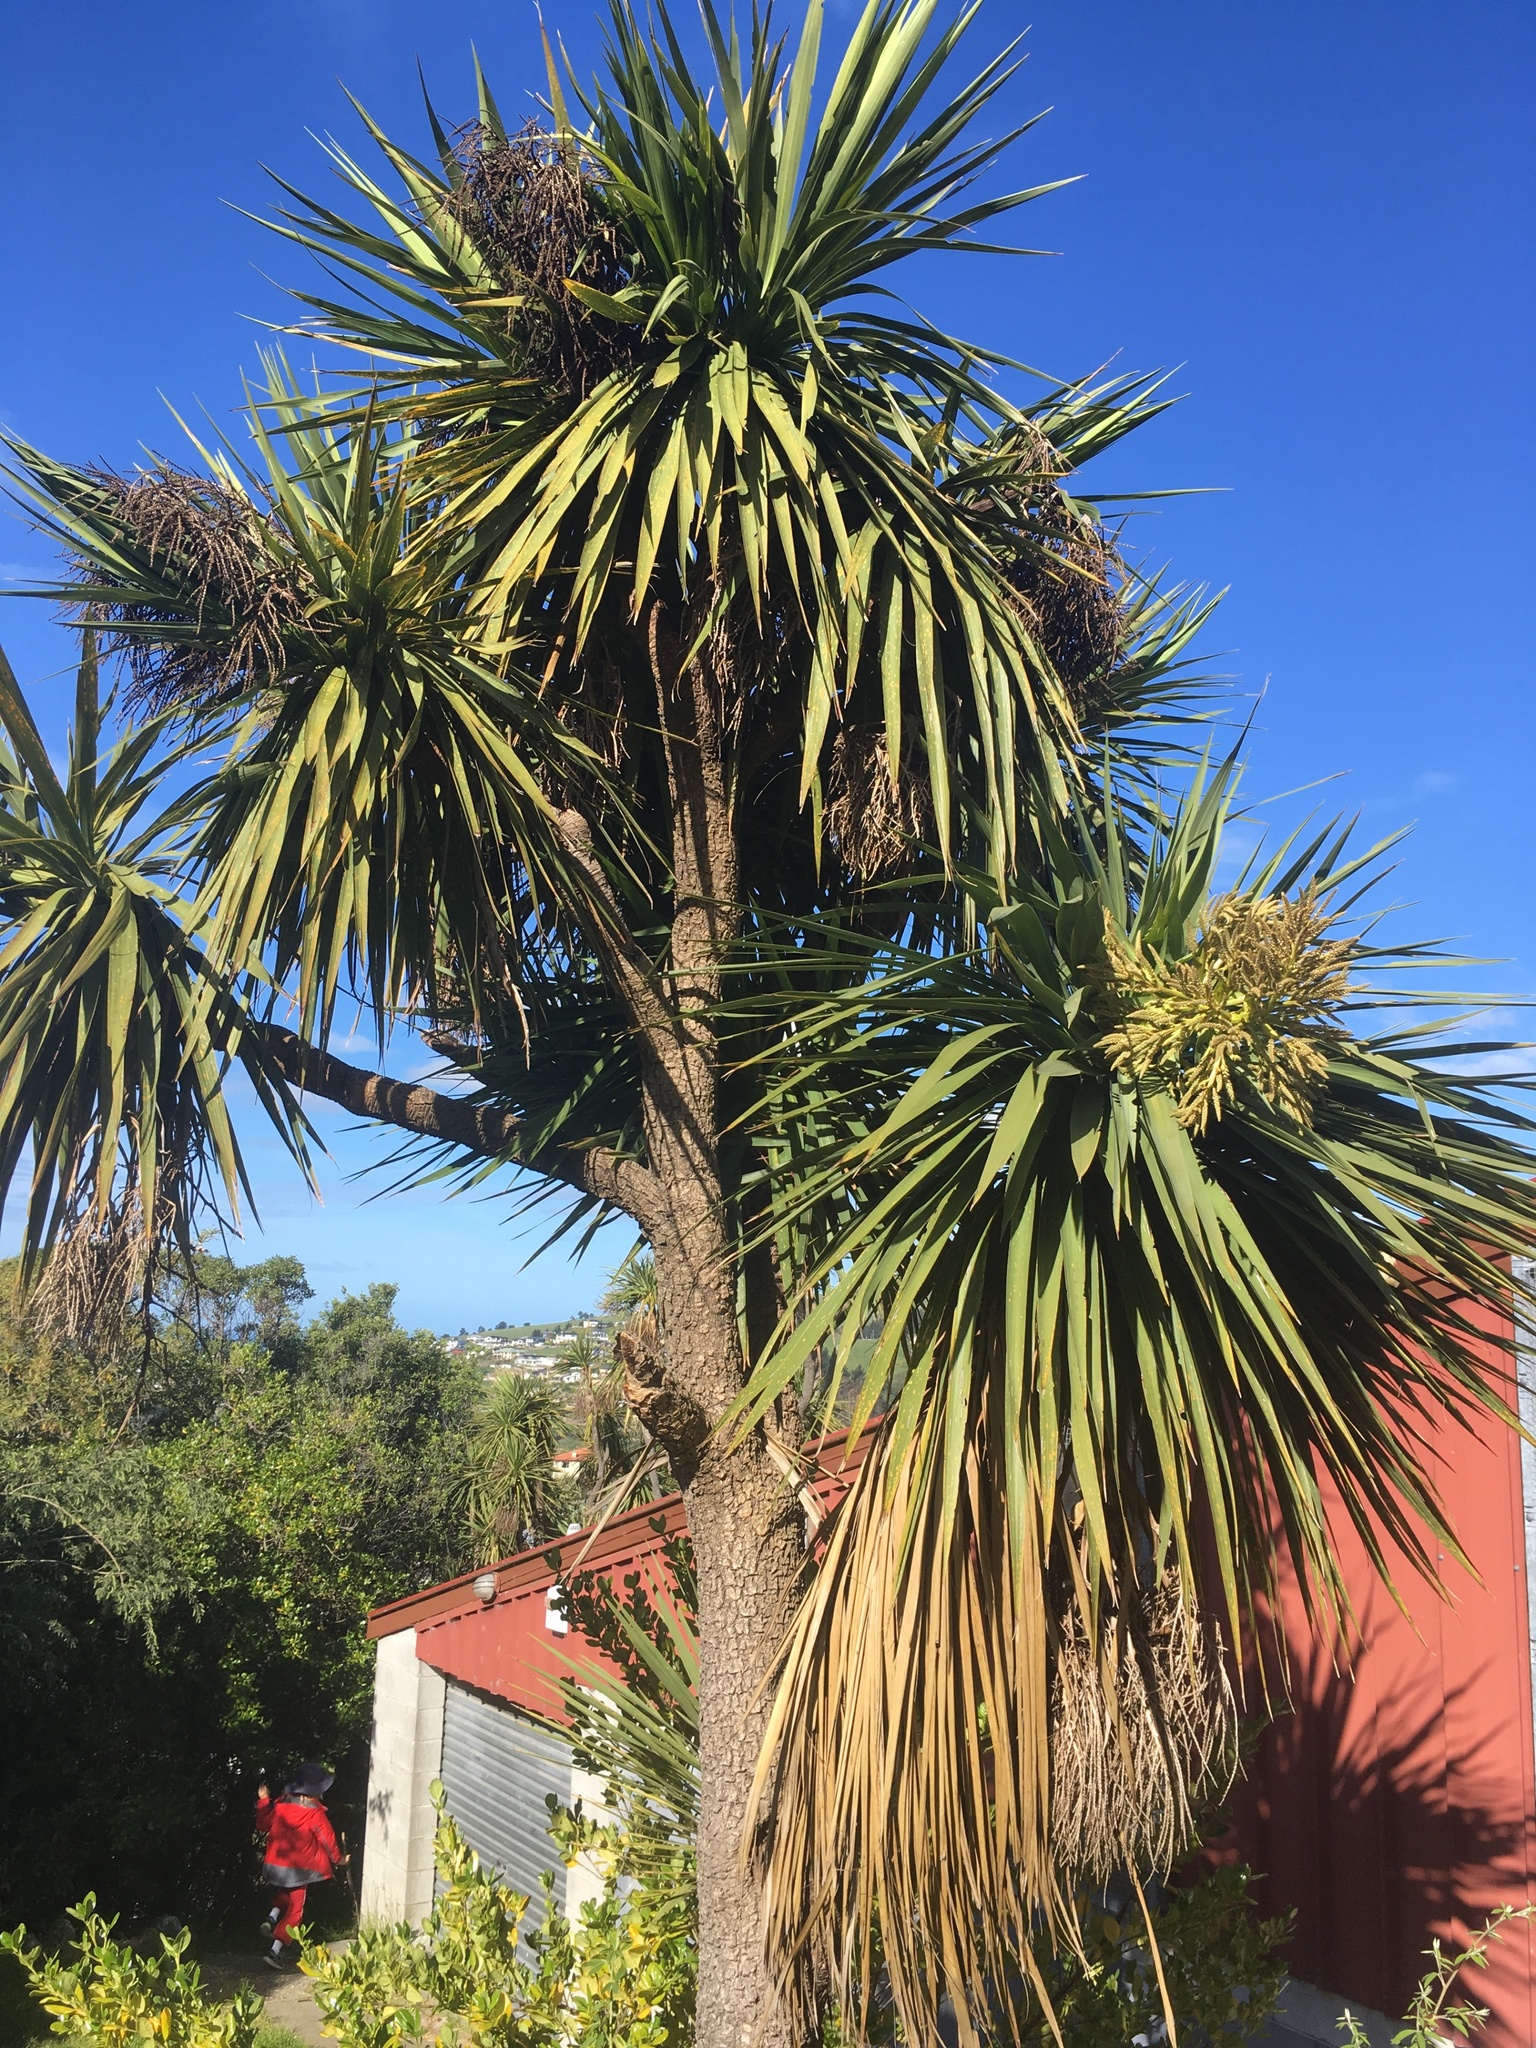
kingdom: Plantae
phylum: Tracheophyta
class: Liliopsida
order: Asparagales
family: Asparagaceae
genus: Cordyline
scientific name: Cordyline australis
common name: Cabbage-palm
